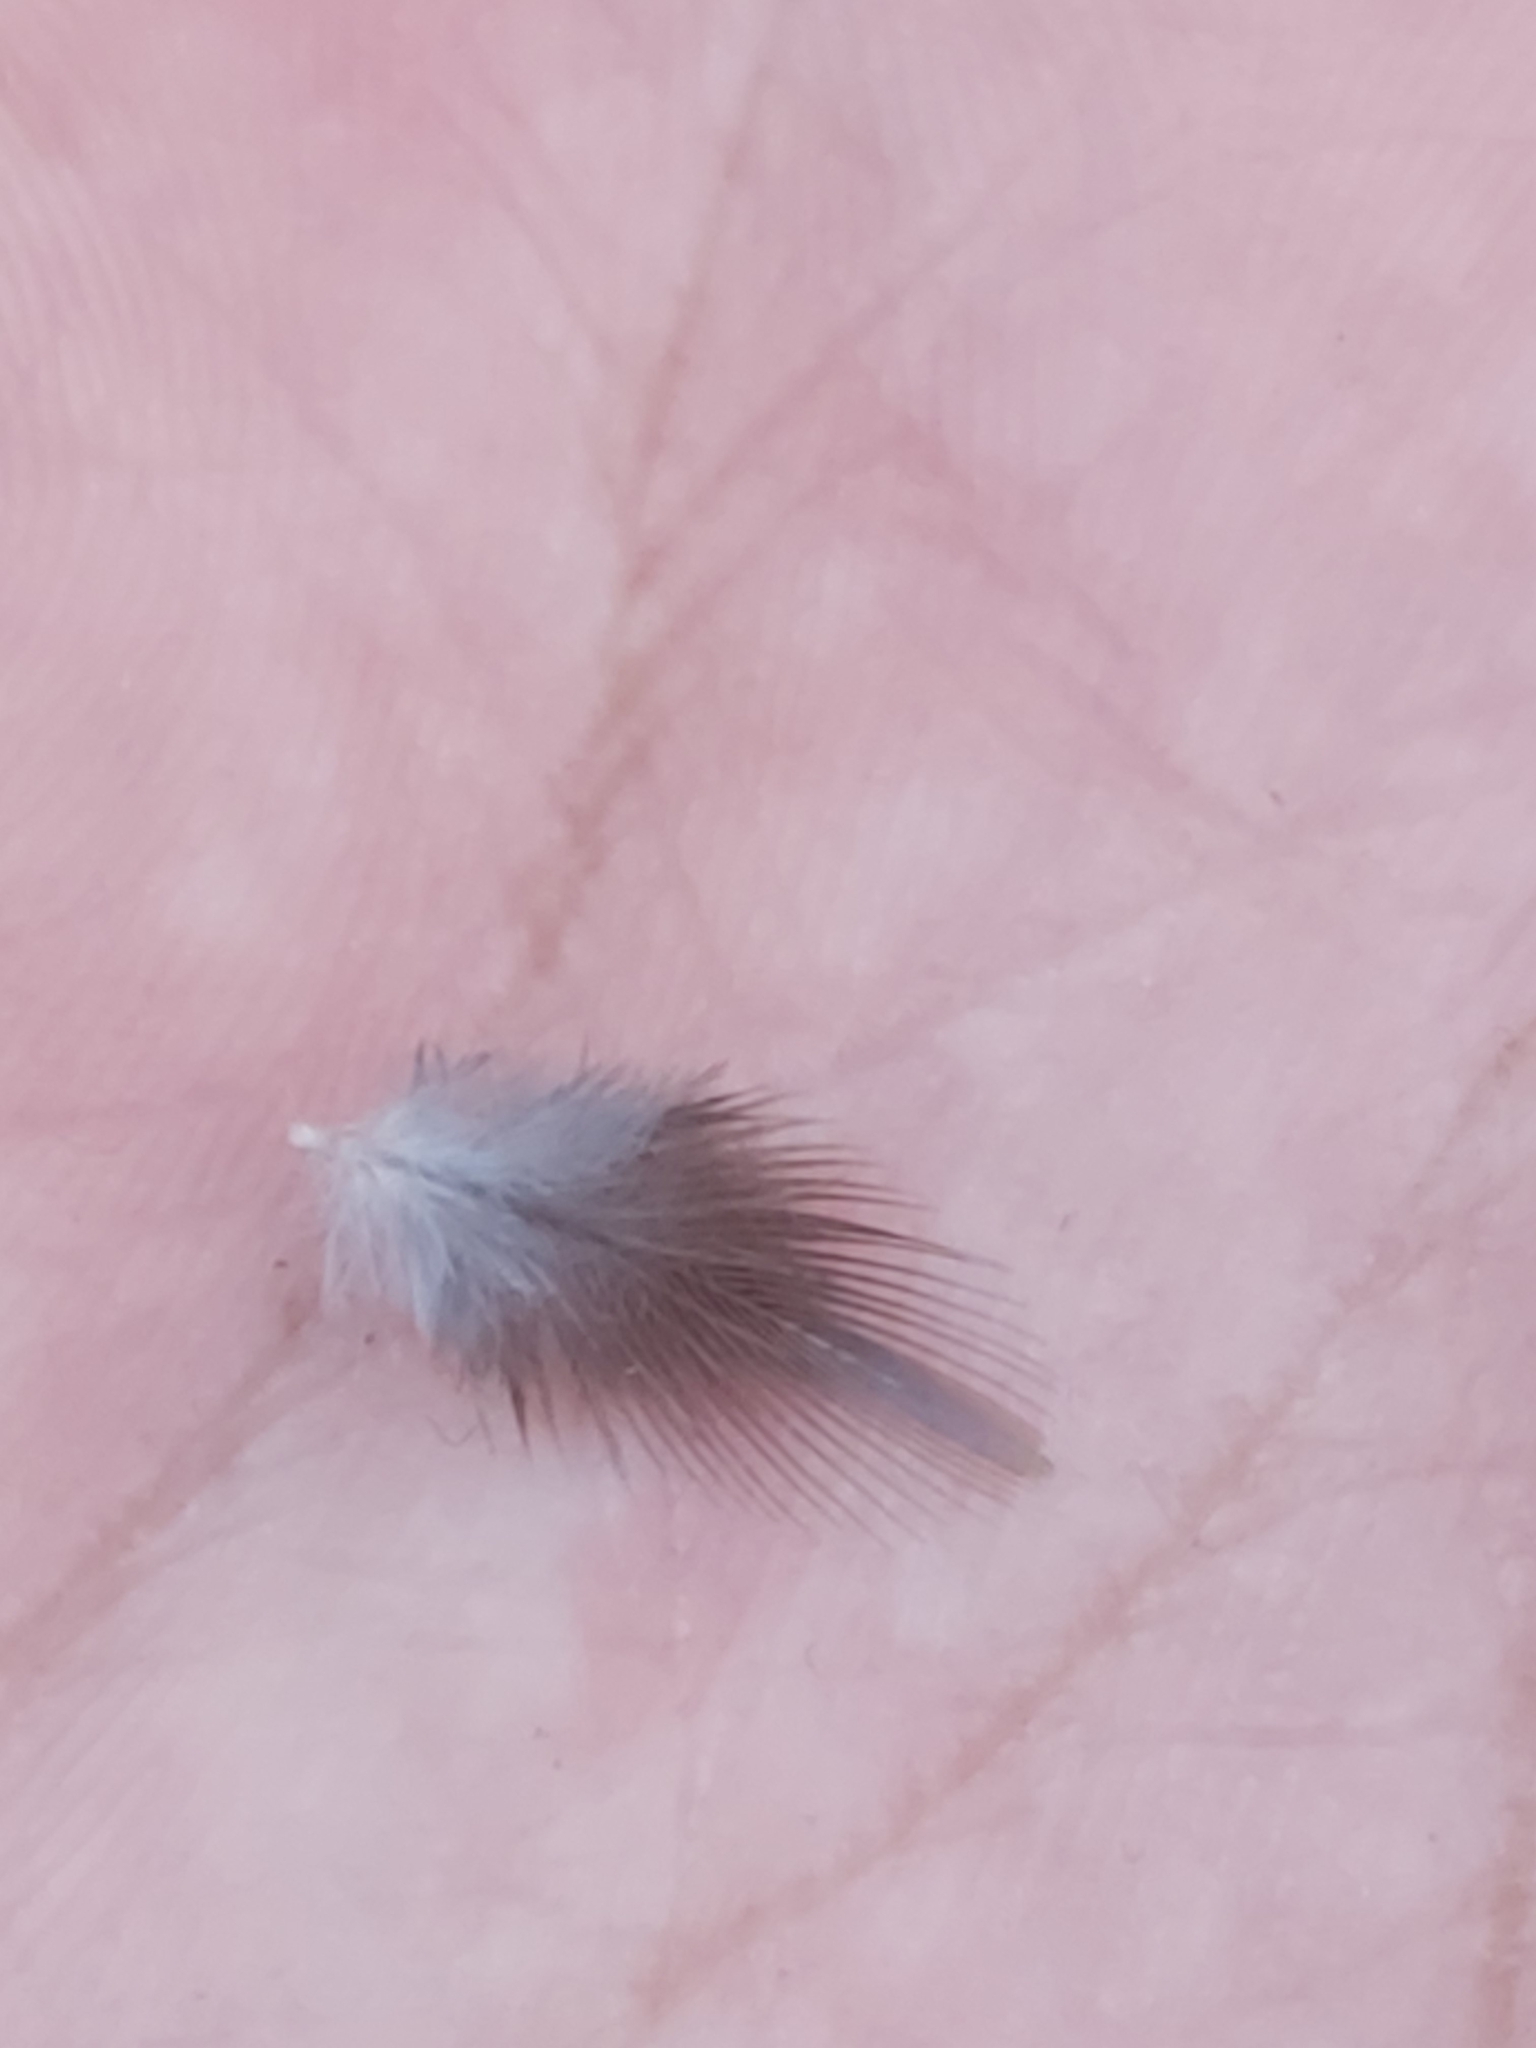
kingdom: Animalia
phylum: Chordata
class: Aves
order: Psittaciformes
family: Psittacidae
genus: Platycercus
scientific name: Platycercus elegans
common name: Crimson rosella
